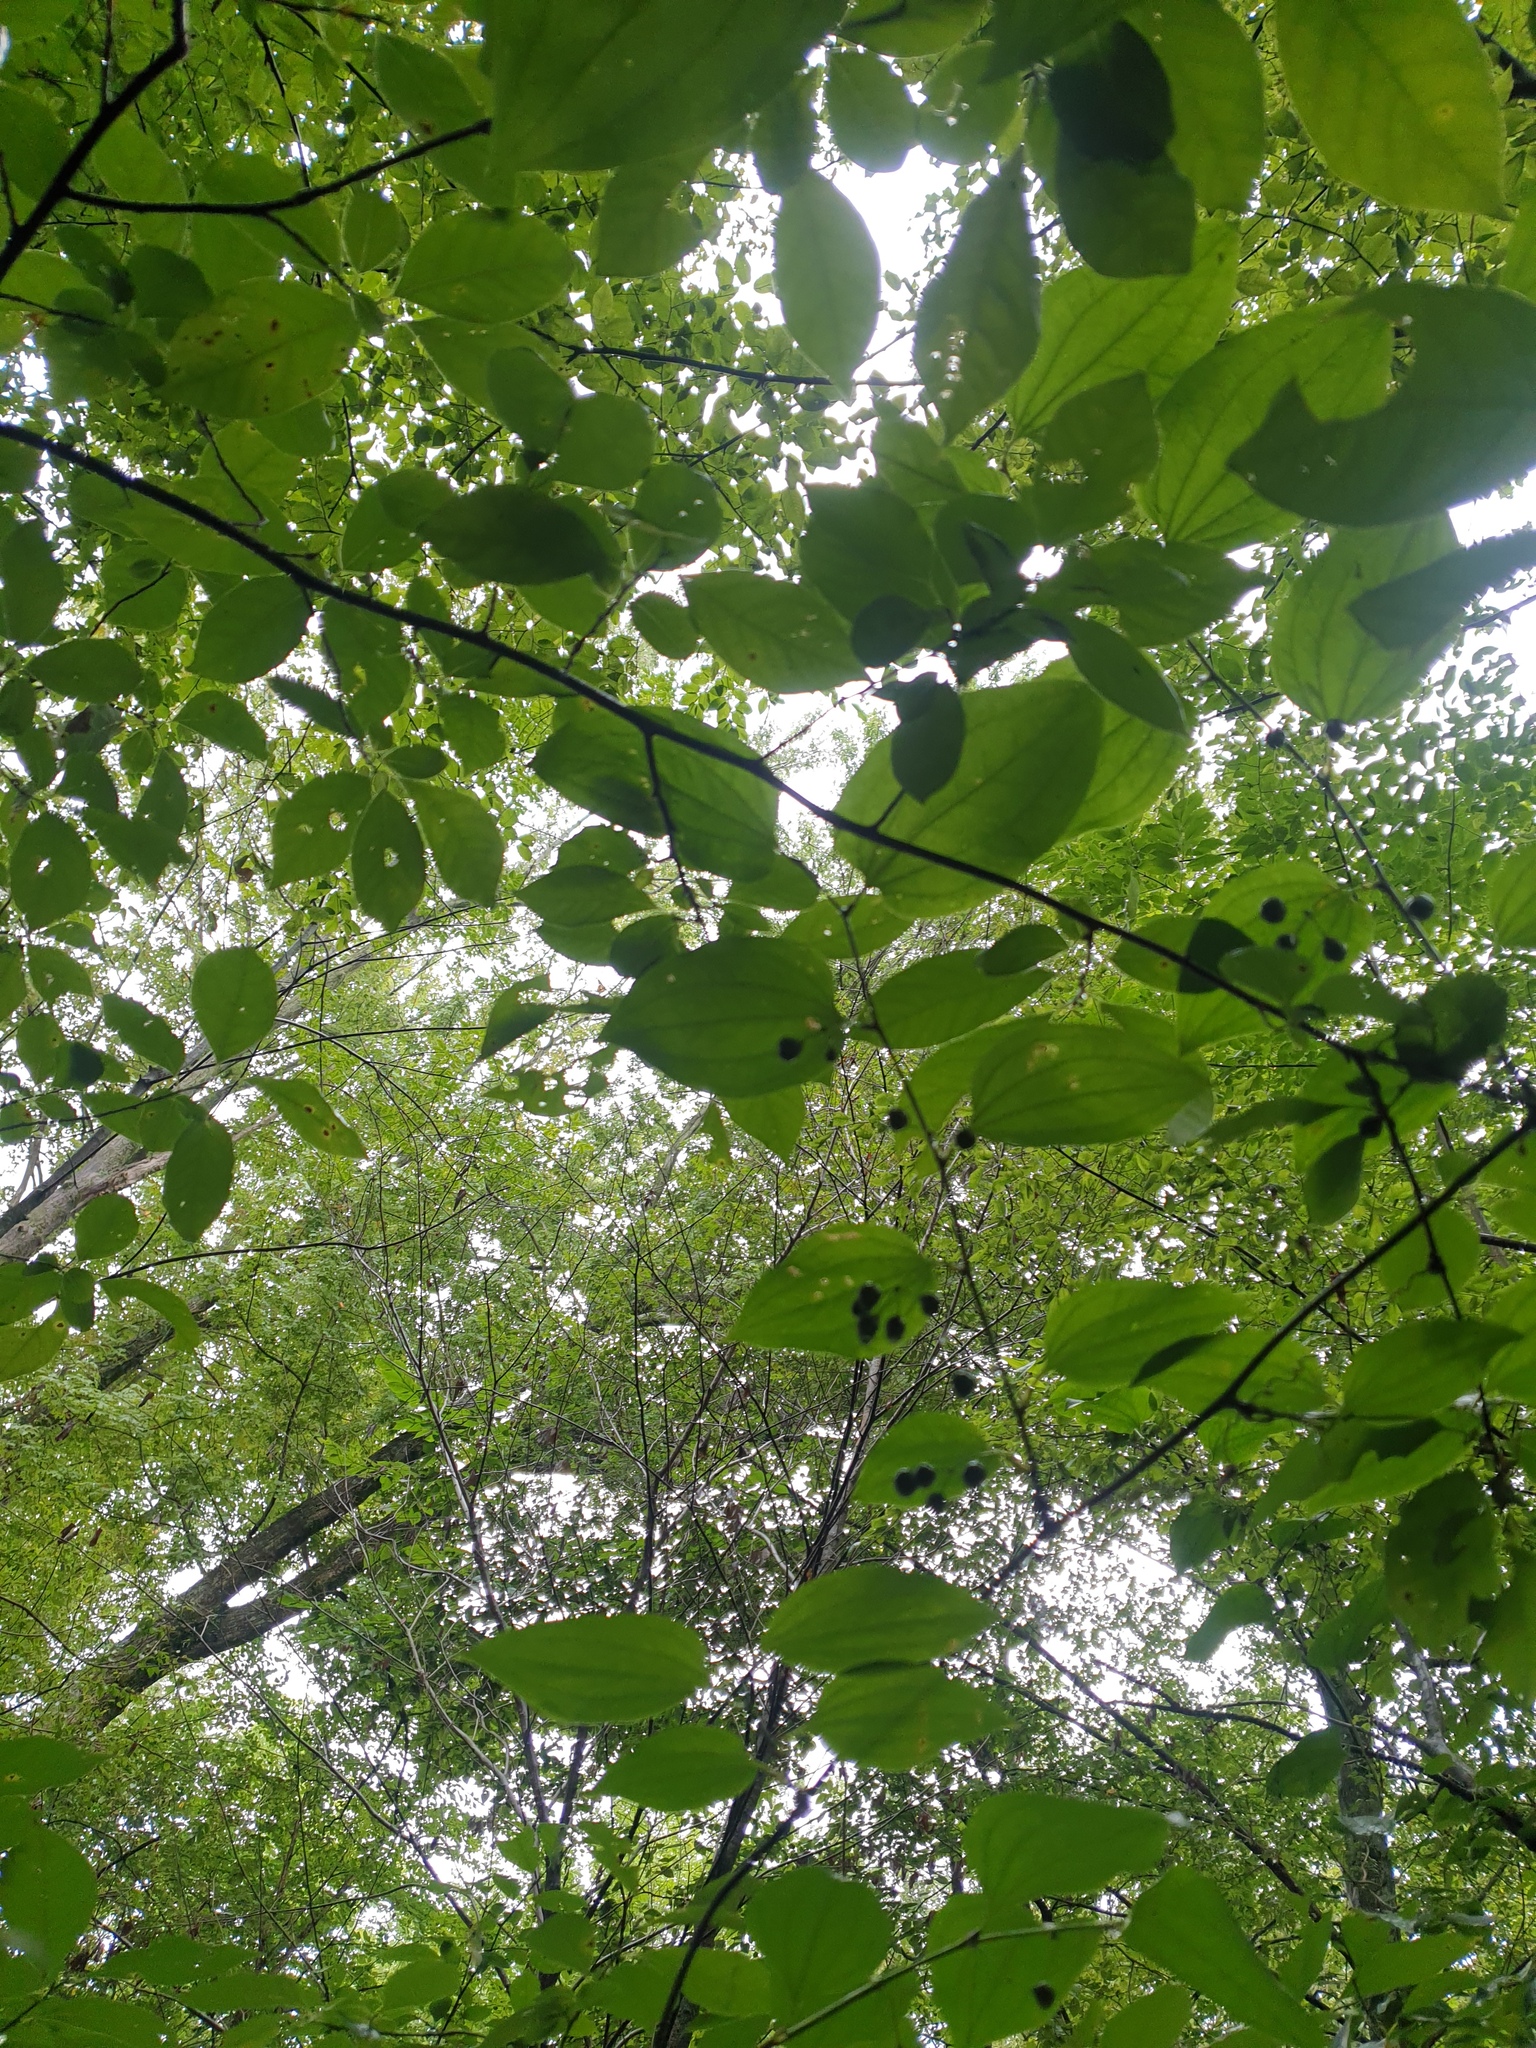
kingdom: Plantae
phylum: Tracheophyta
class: Liliopsida
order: Liliales
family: Smilacaceae
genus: Smilax
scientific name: Smilax tamnoides
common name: Hellfetter
